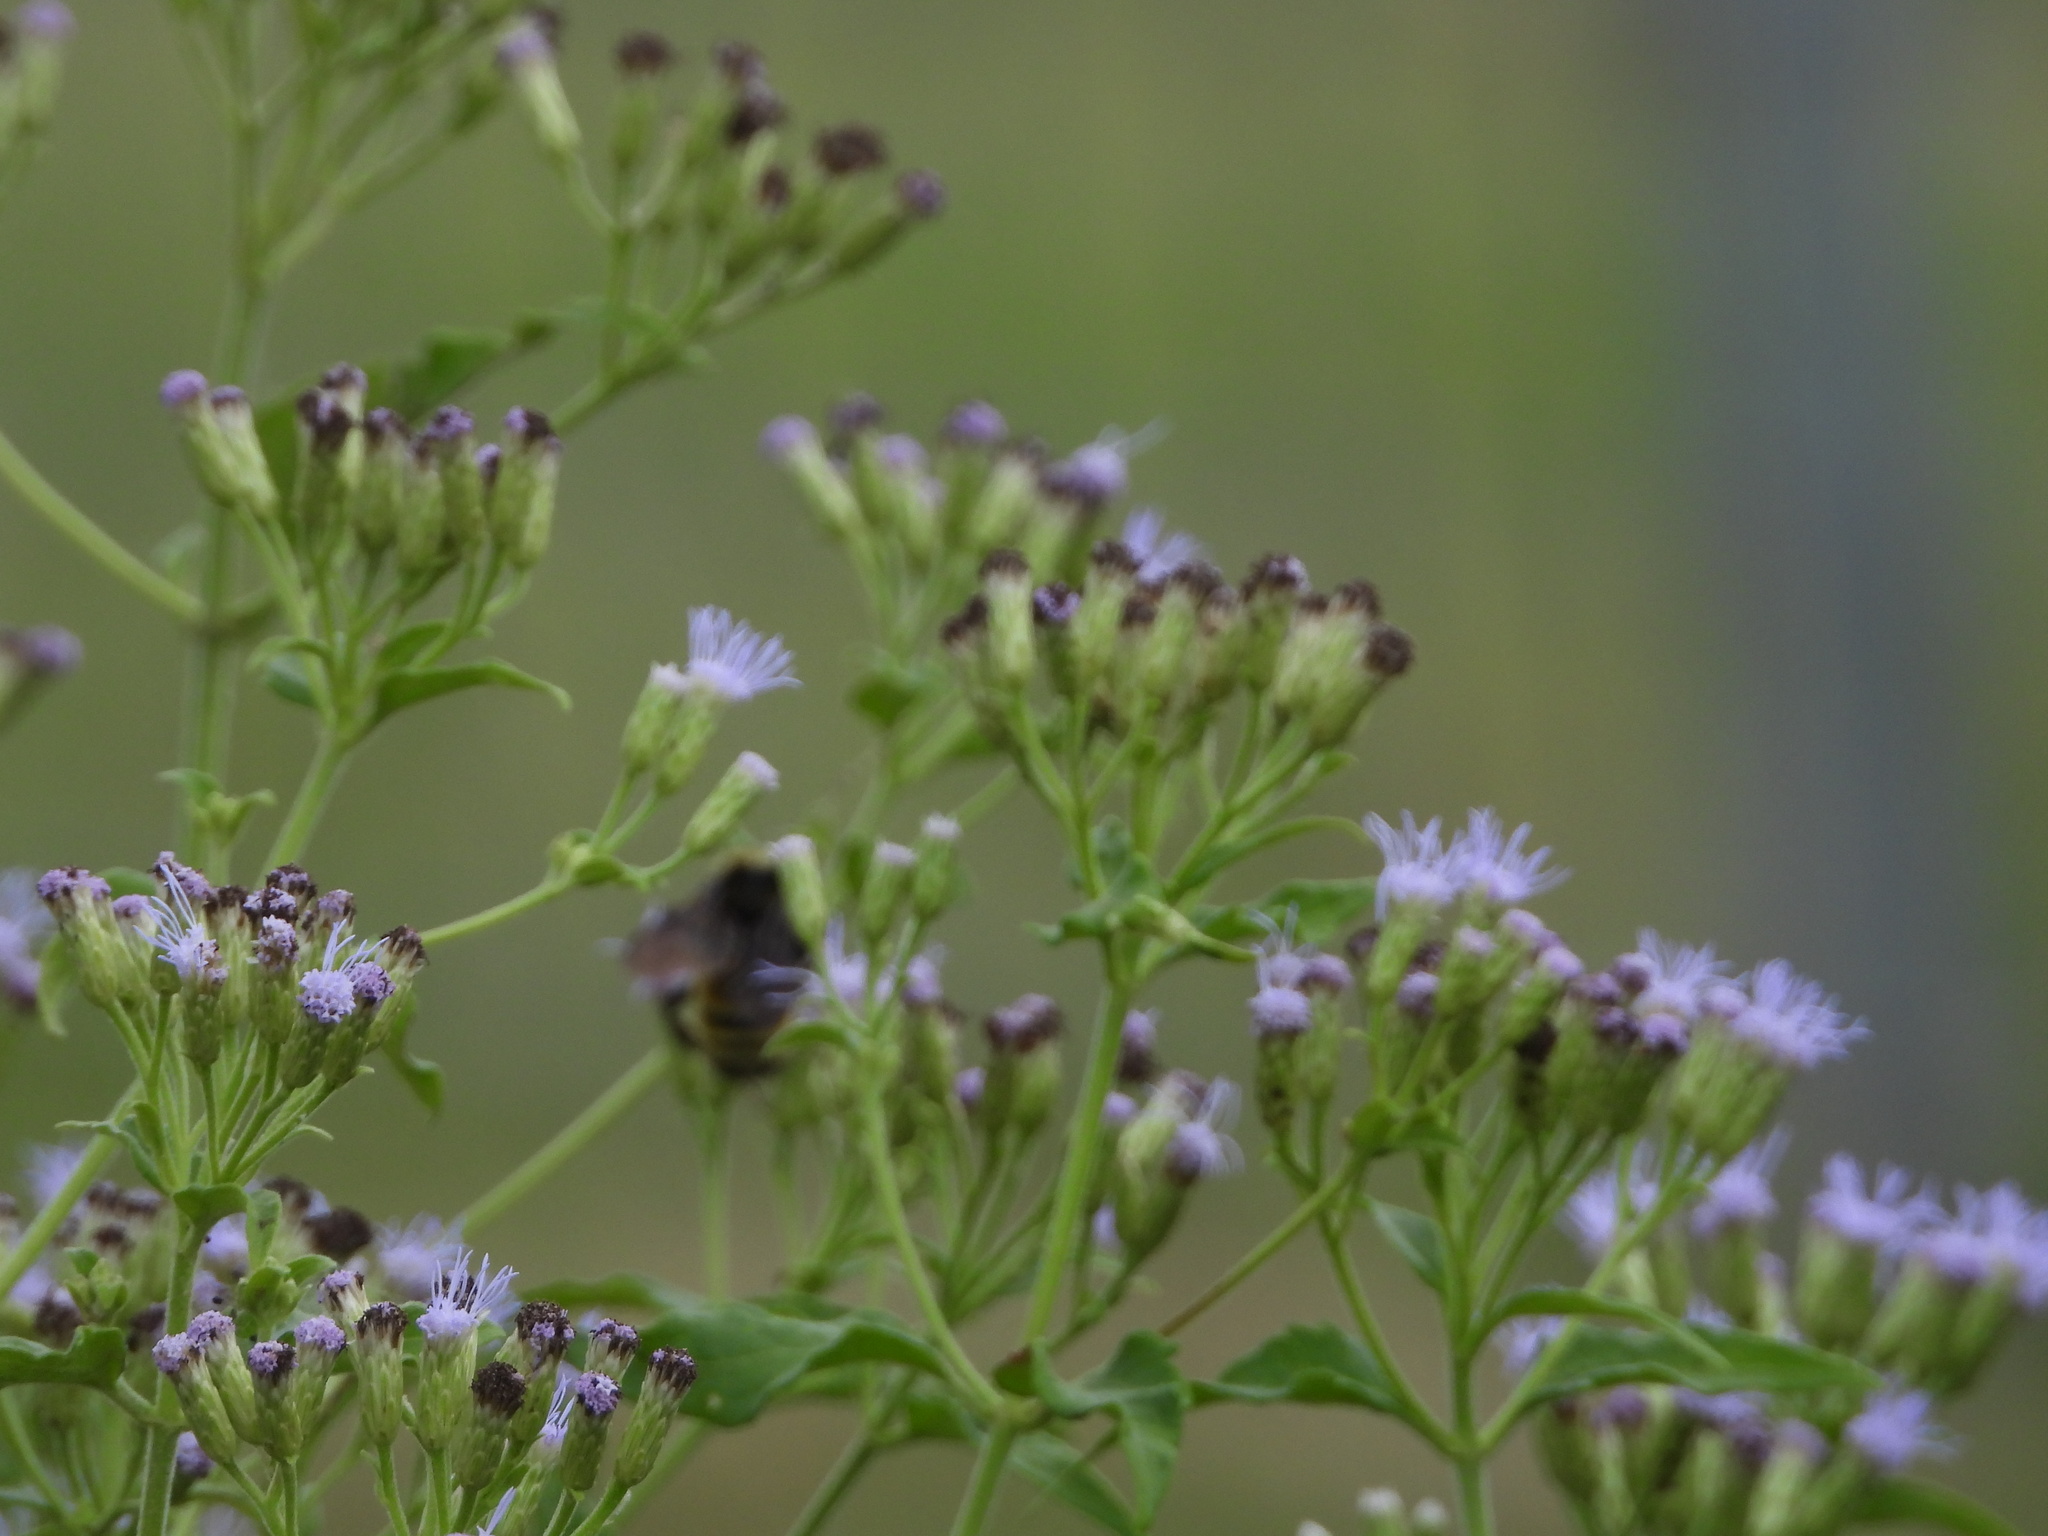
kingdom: Animalia
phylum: Arthropoda
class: Insecta
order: Hymenoptera
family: Apidae
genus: Bombus
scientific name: Bombus pensylvanicus
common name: Bumble bee
